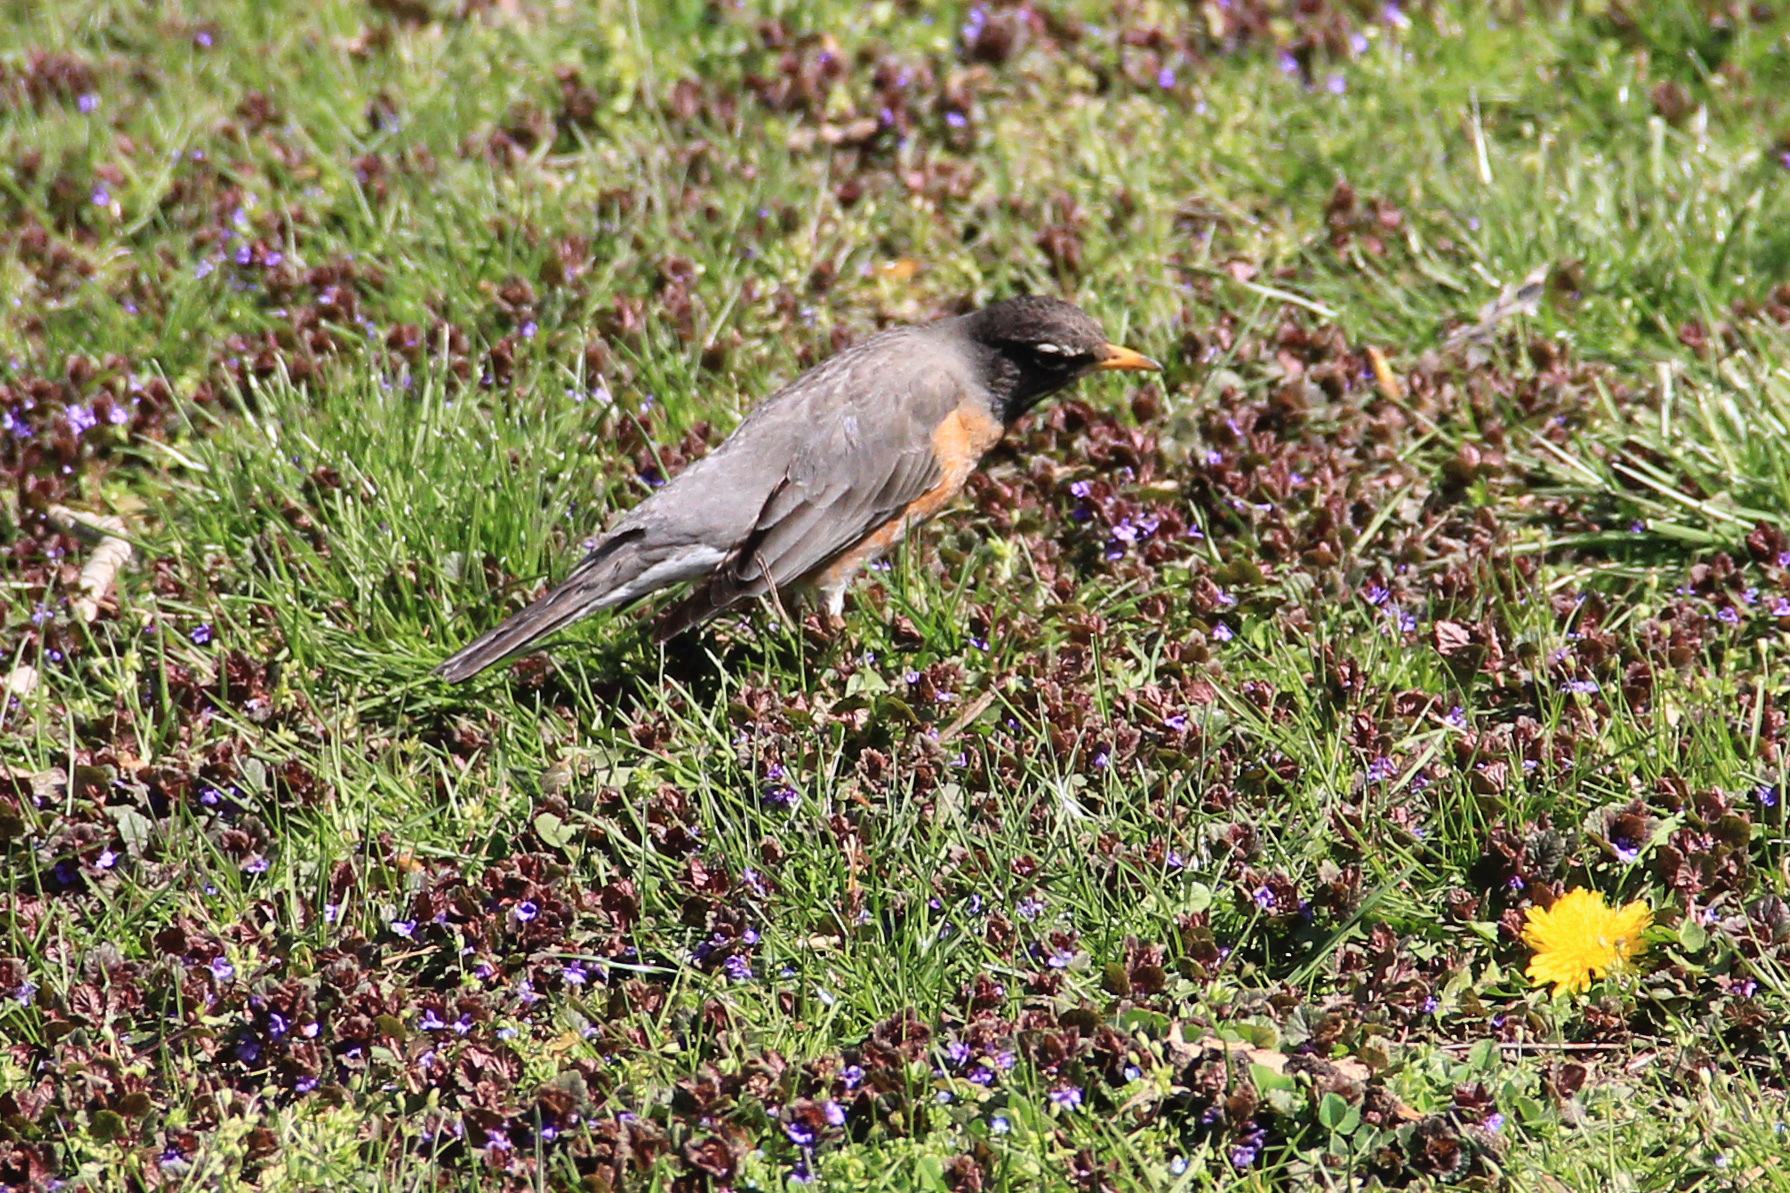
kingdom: Animalia
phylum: Chordata
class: Aves
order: Passeriformes
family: Turdidae
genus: Turdus
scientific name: Turdus migratorius
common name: American robin
